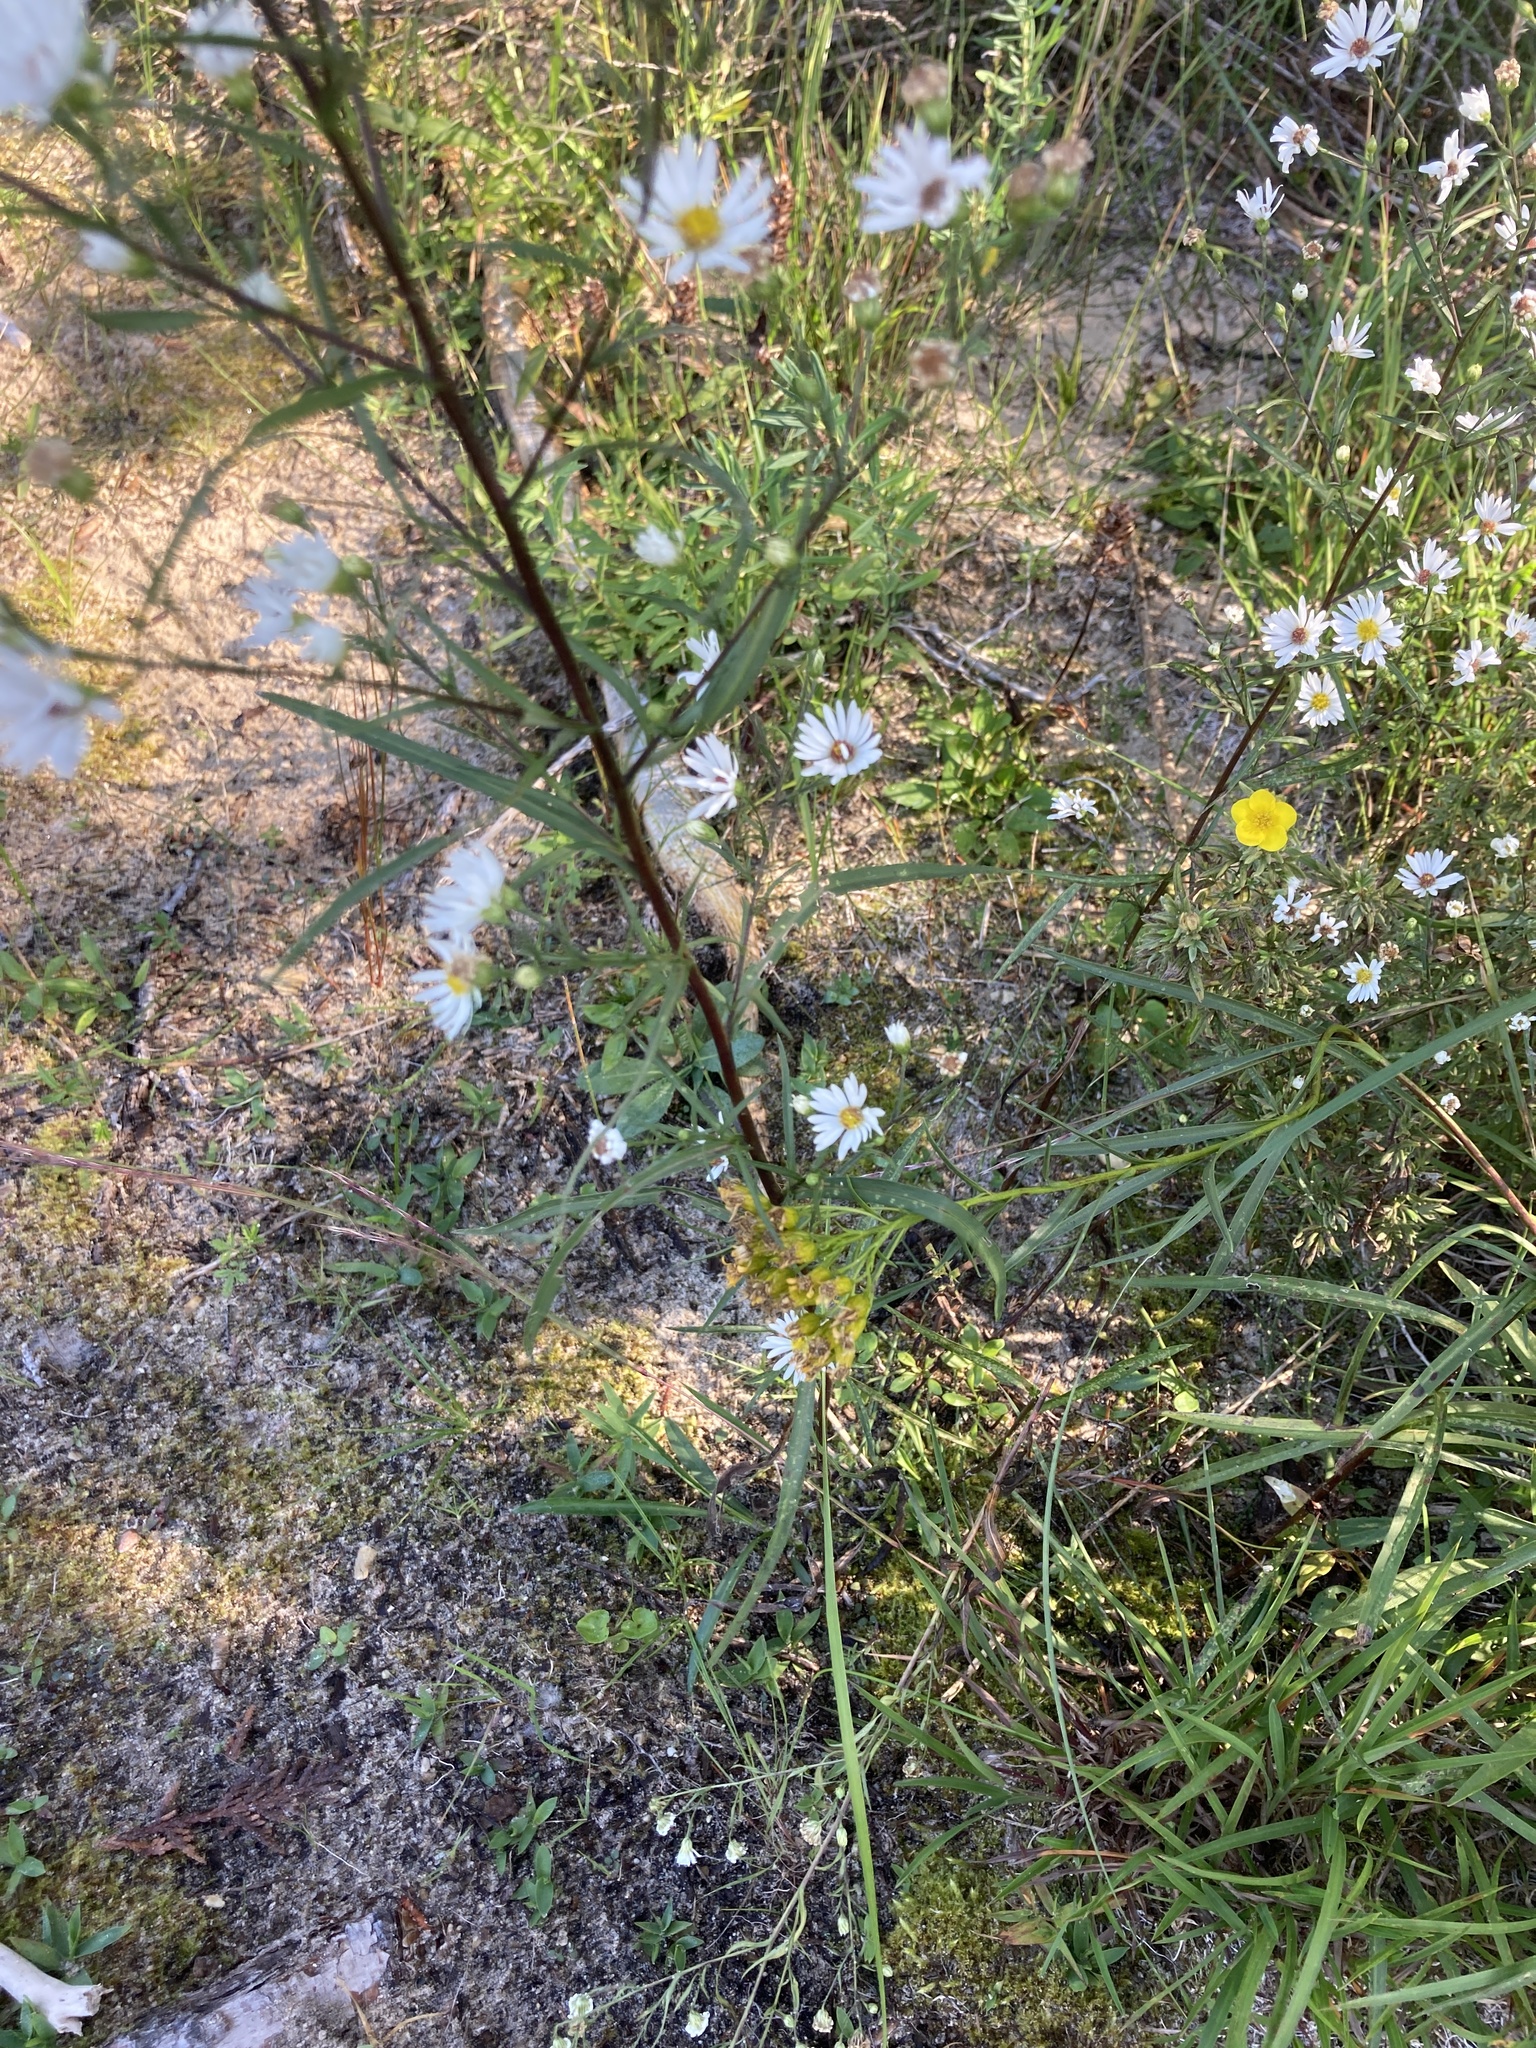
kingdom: Plantae
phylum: Tracheophyta
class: Magnoliopsida
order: Asterales
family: Asteraceae
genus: Symphyotrichum
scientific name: Symphyotrichum boreale
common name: Northern bog aster
